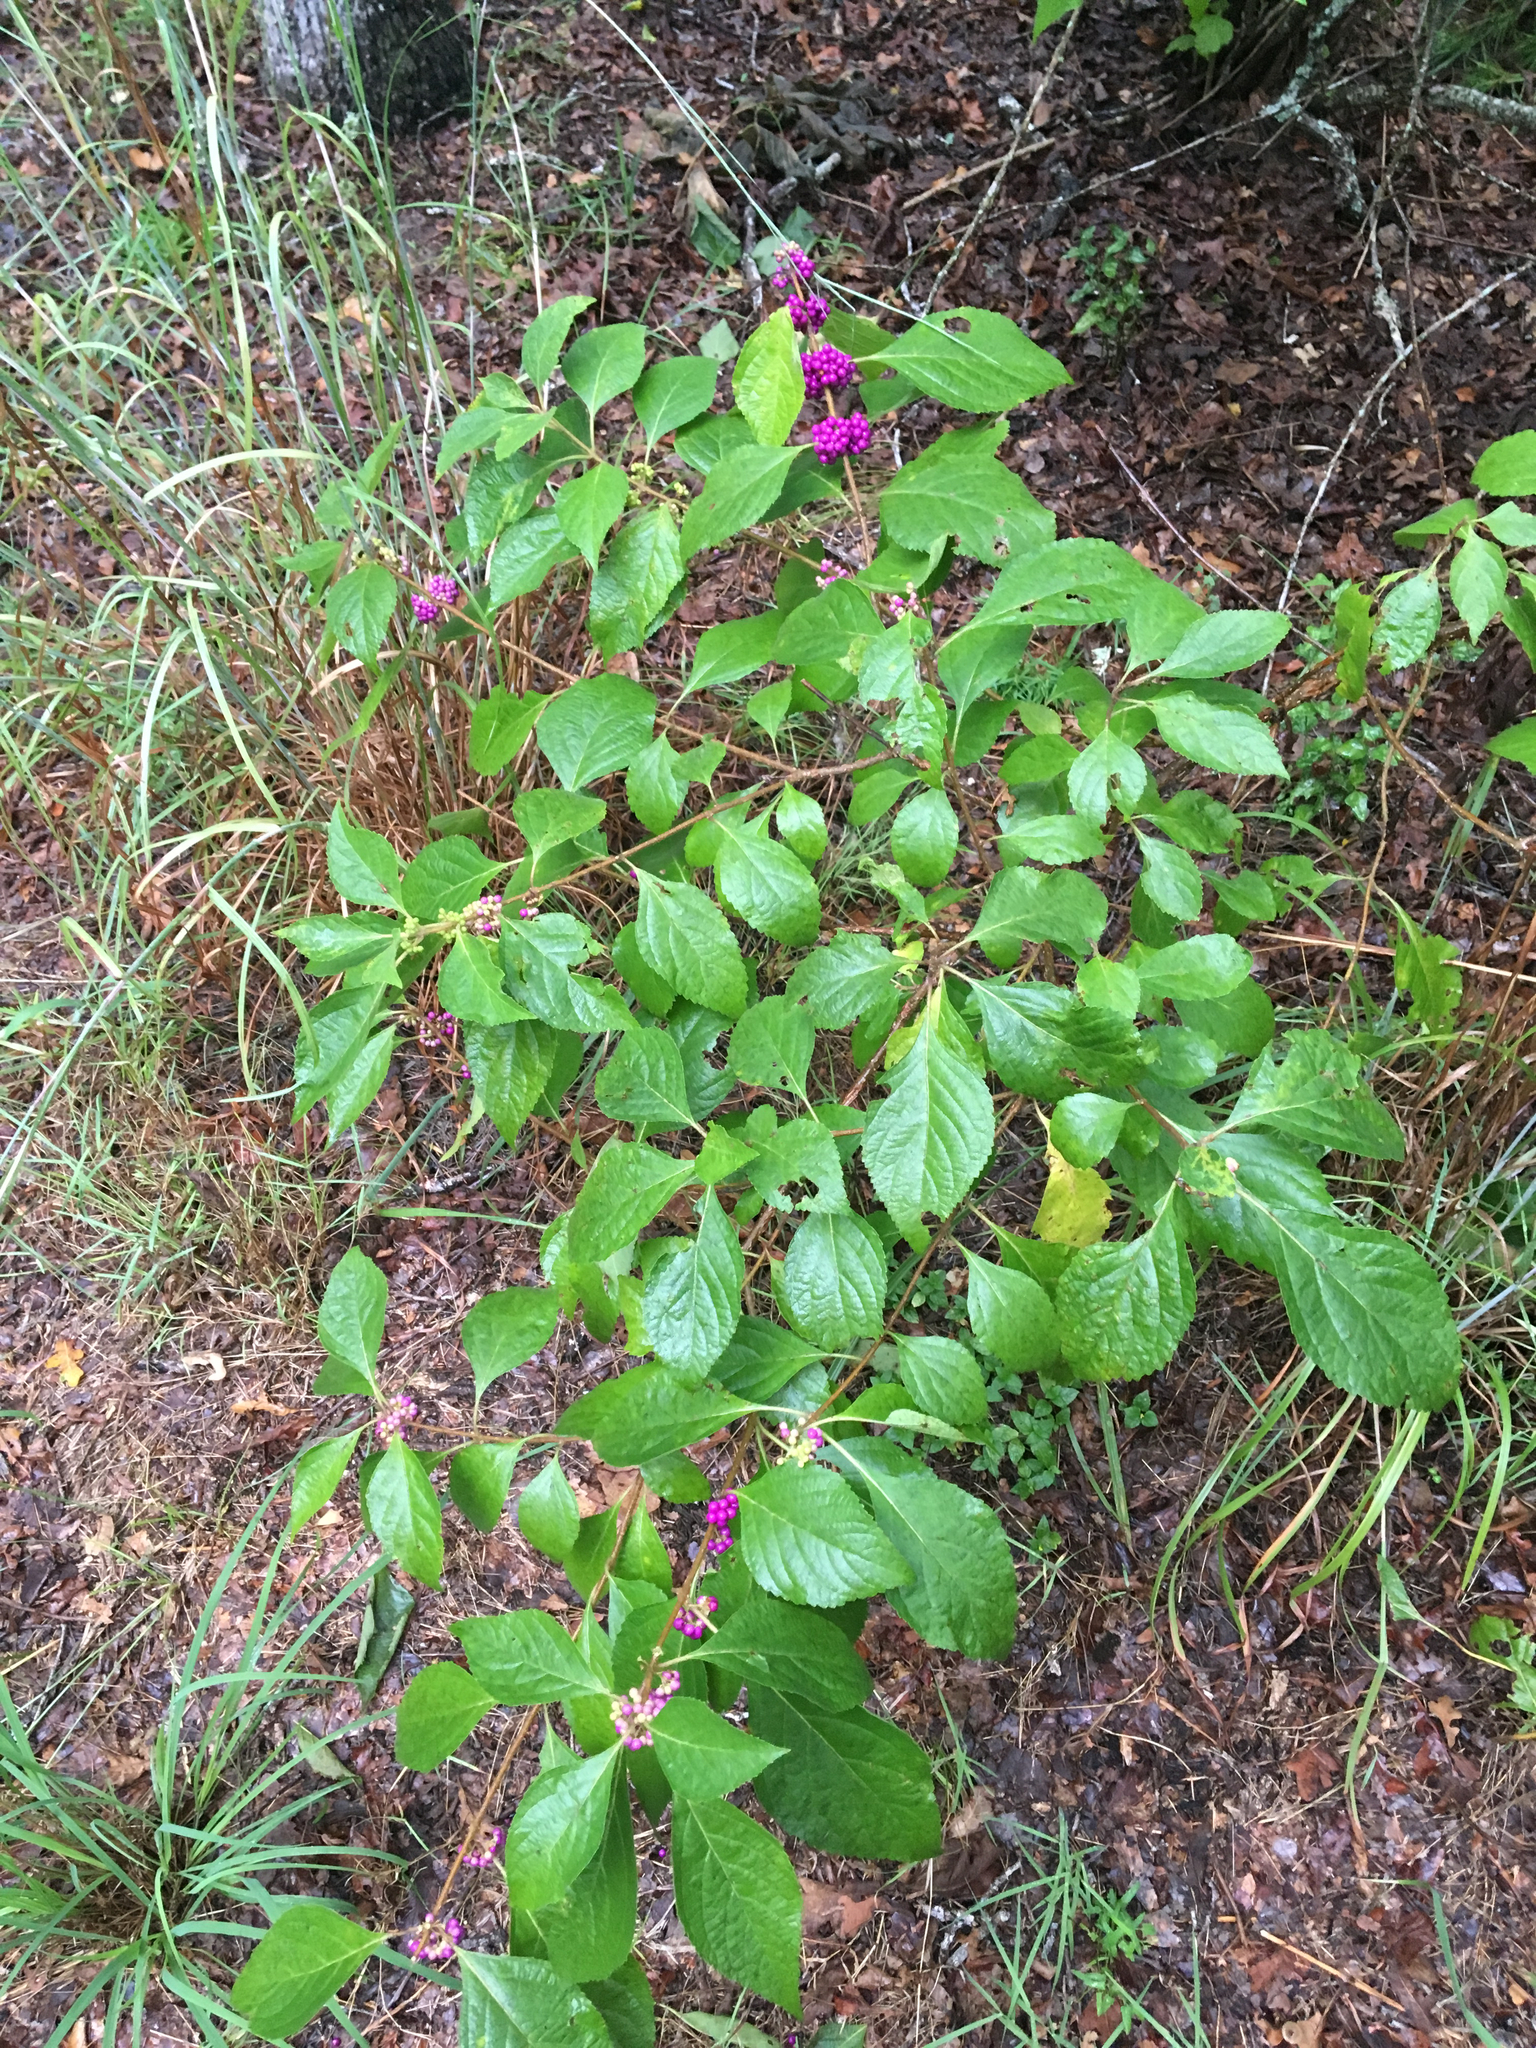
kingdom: Plantae
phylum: Tracheophyta
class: Magnoliopsida
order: Lamiales
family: Lamiaceae
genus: Callicarpa
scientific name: Callicarpa americana
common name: American beautyberry
